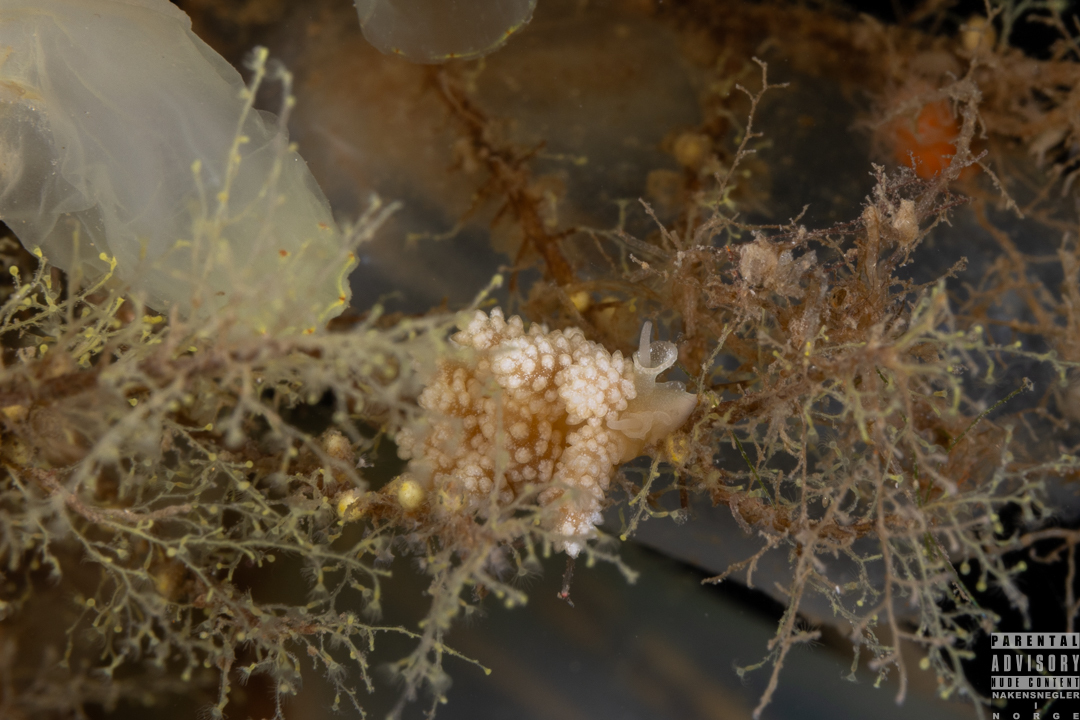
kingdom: Animalia
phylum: Mollusca
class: Gastropoda
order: Nudibranchia
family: Dotidae
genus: Doto
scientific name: Doto fragilis
